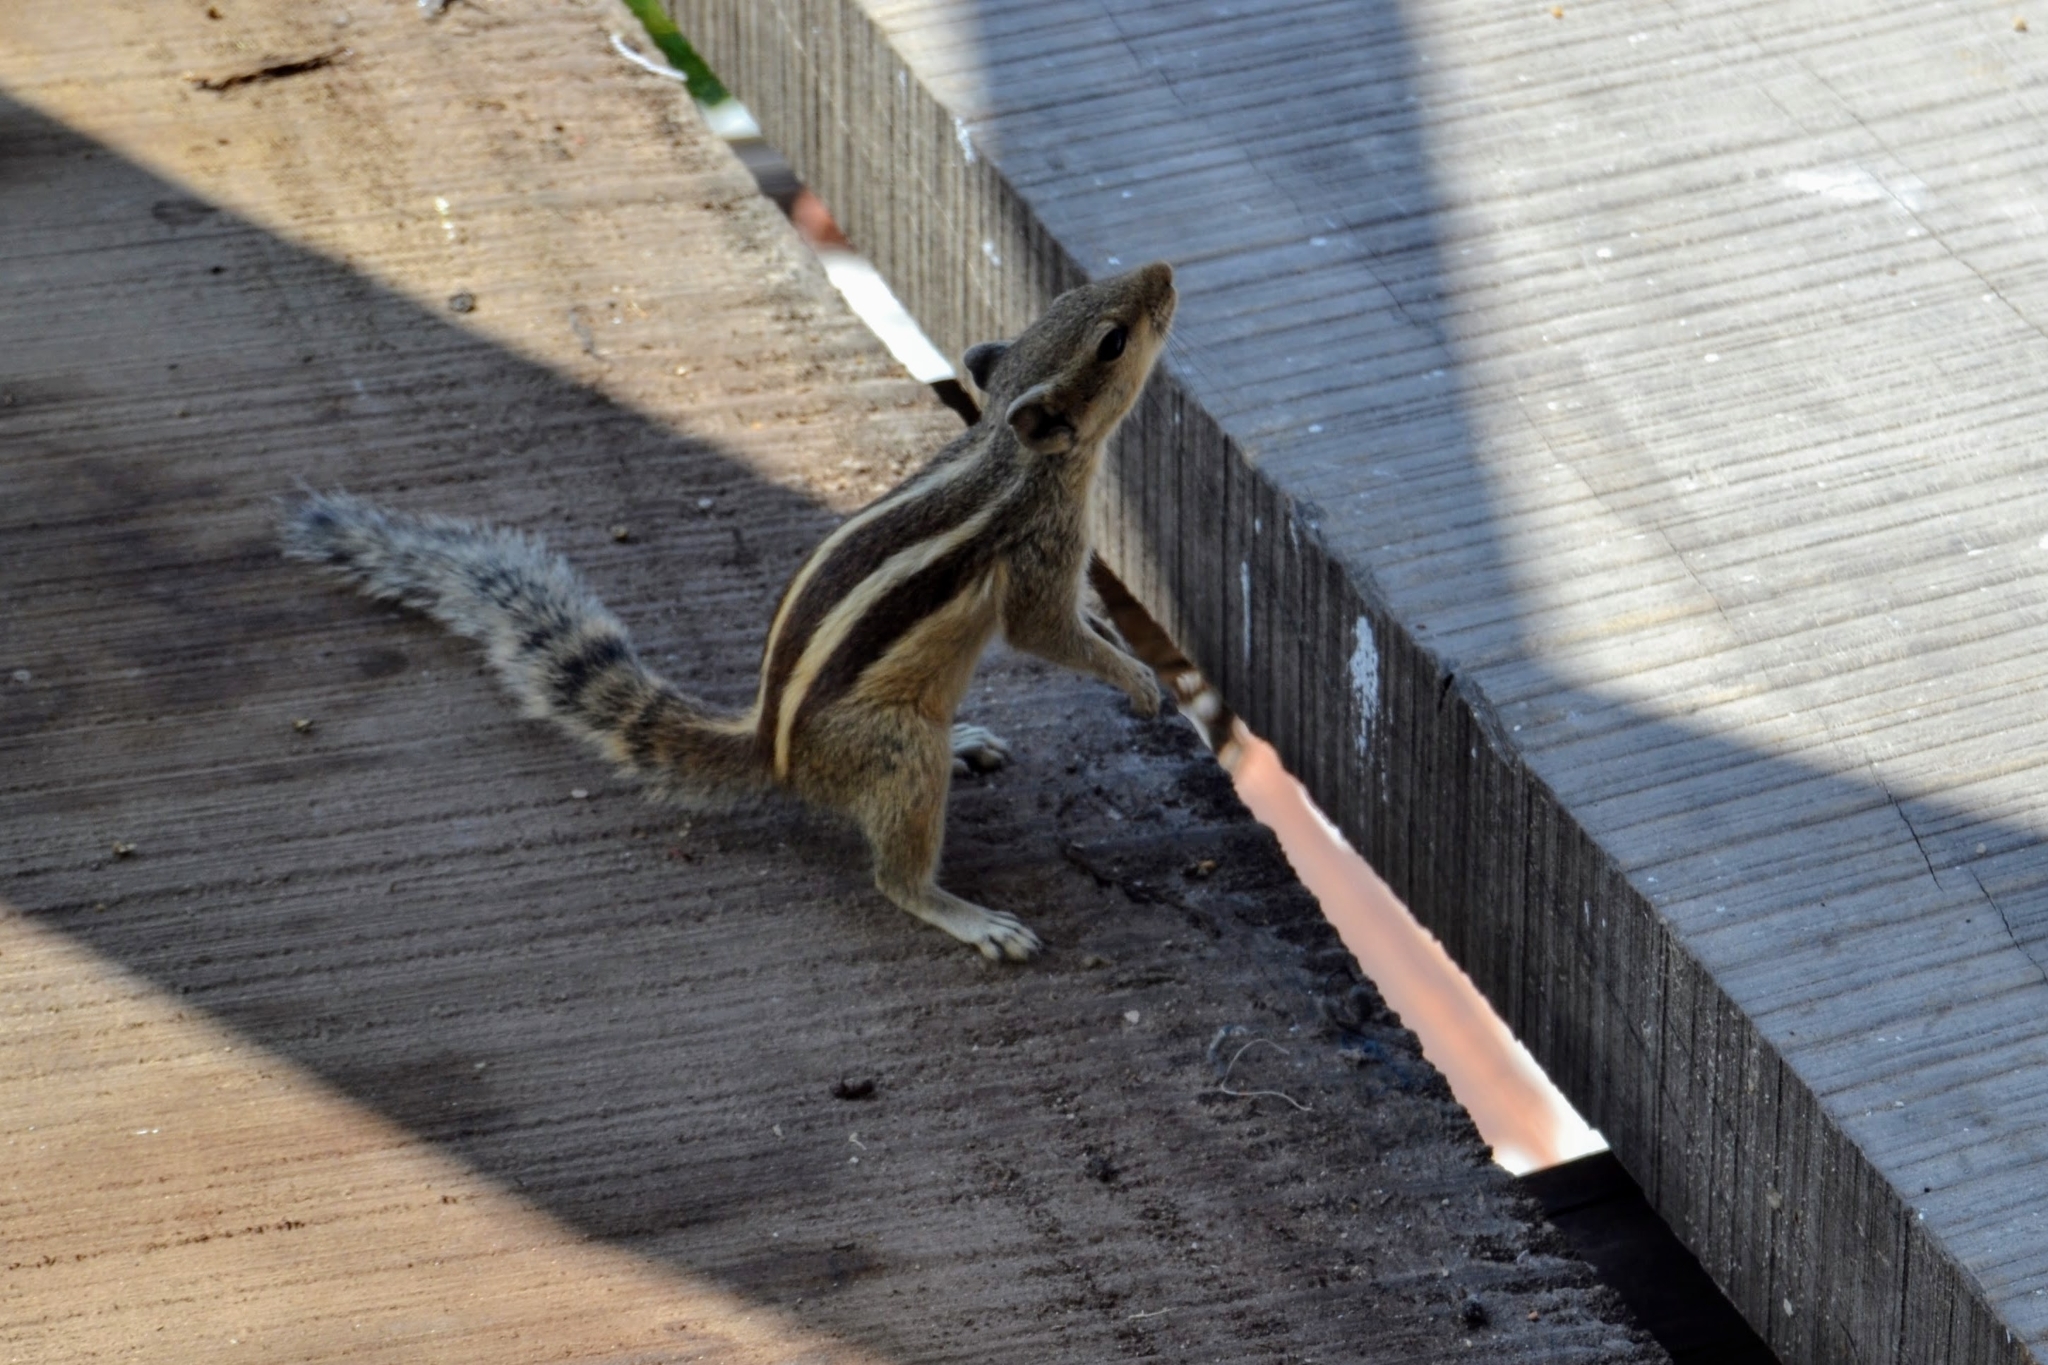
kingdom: Animalia
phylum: Chordata
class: Mammalia
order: Rodentia
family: Sciuridae
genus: Funambulus
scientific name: Funambulus pennantii
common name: Northern palm squirrel
